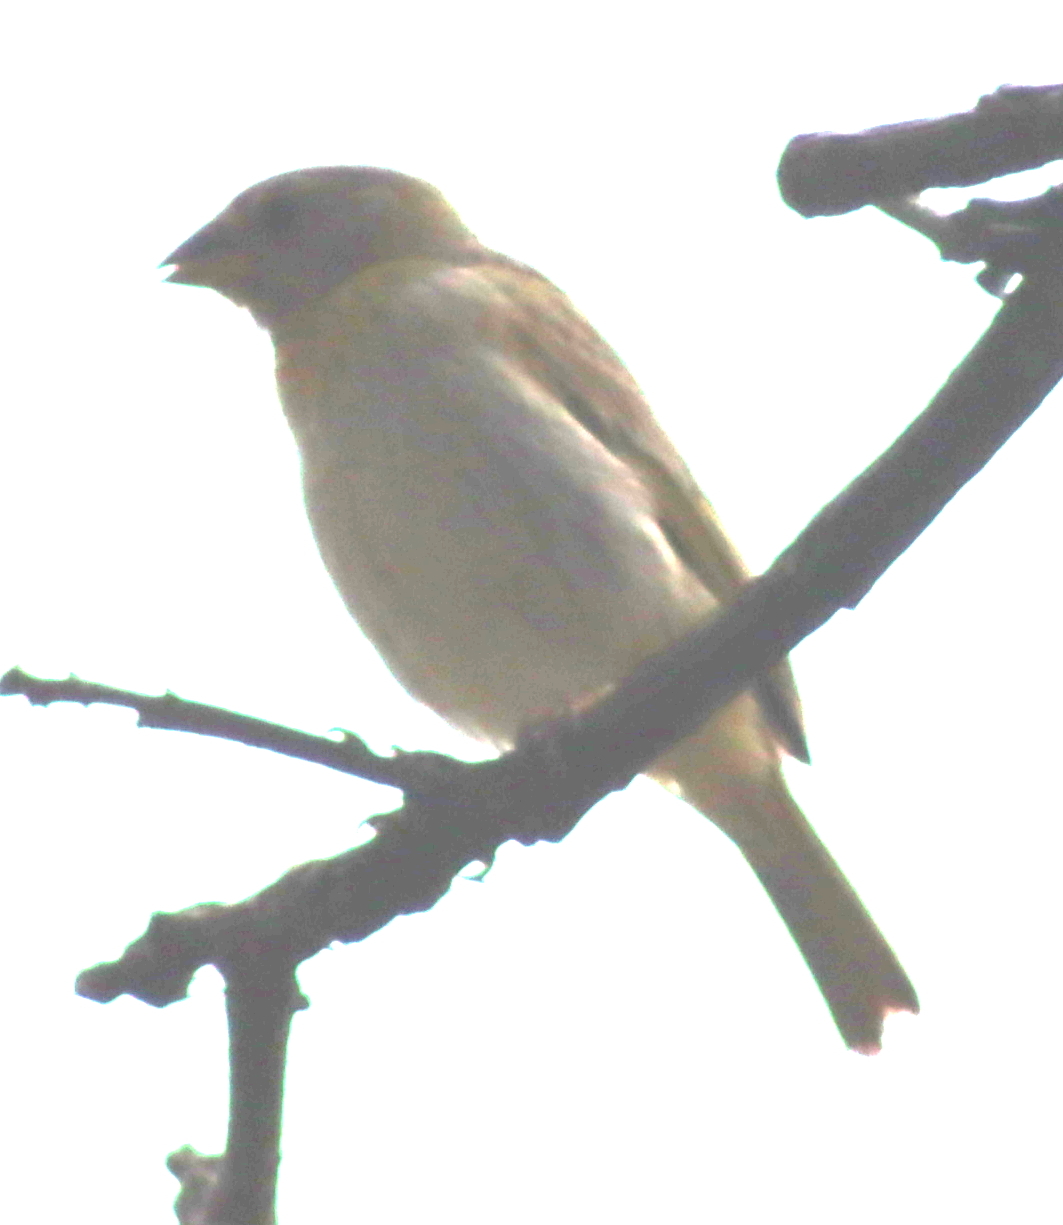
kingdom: Animalia
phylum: Chordata
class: Aves
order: Passeriformes
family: Thraupidae
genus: Sicalis
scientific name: Sicalis flaveola
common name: Saffron finch
